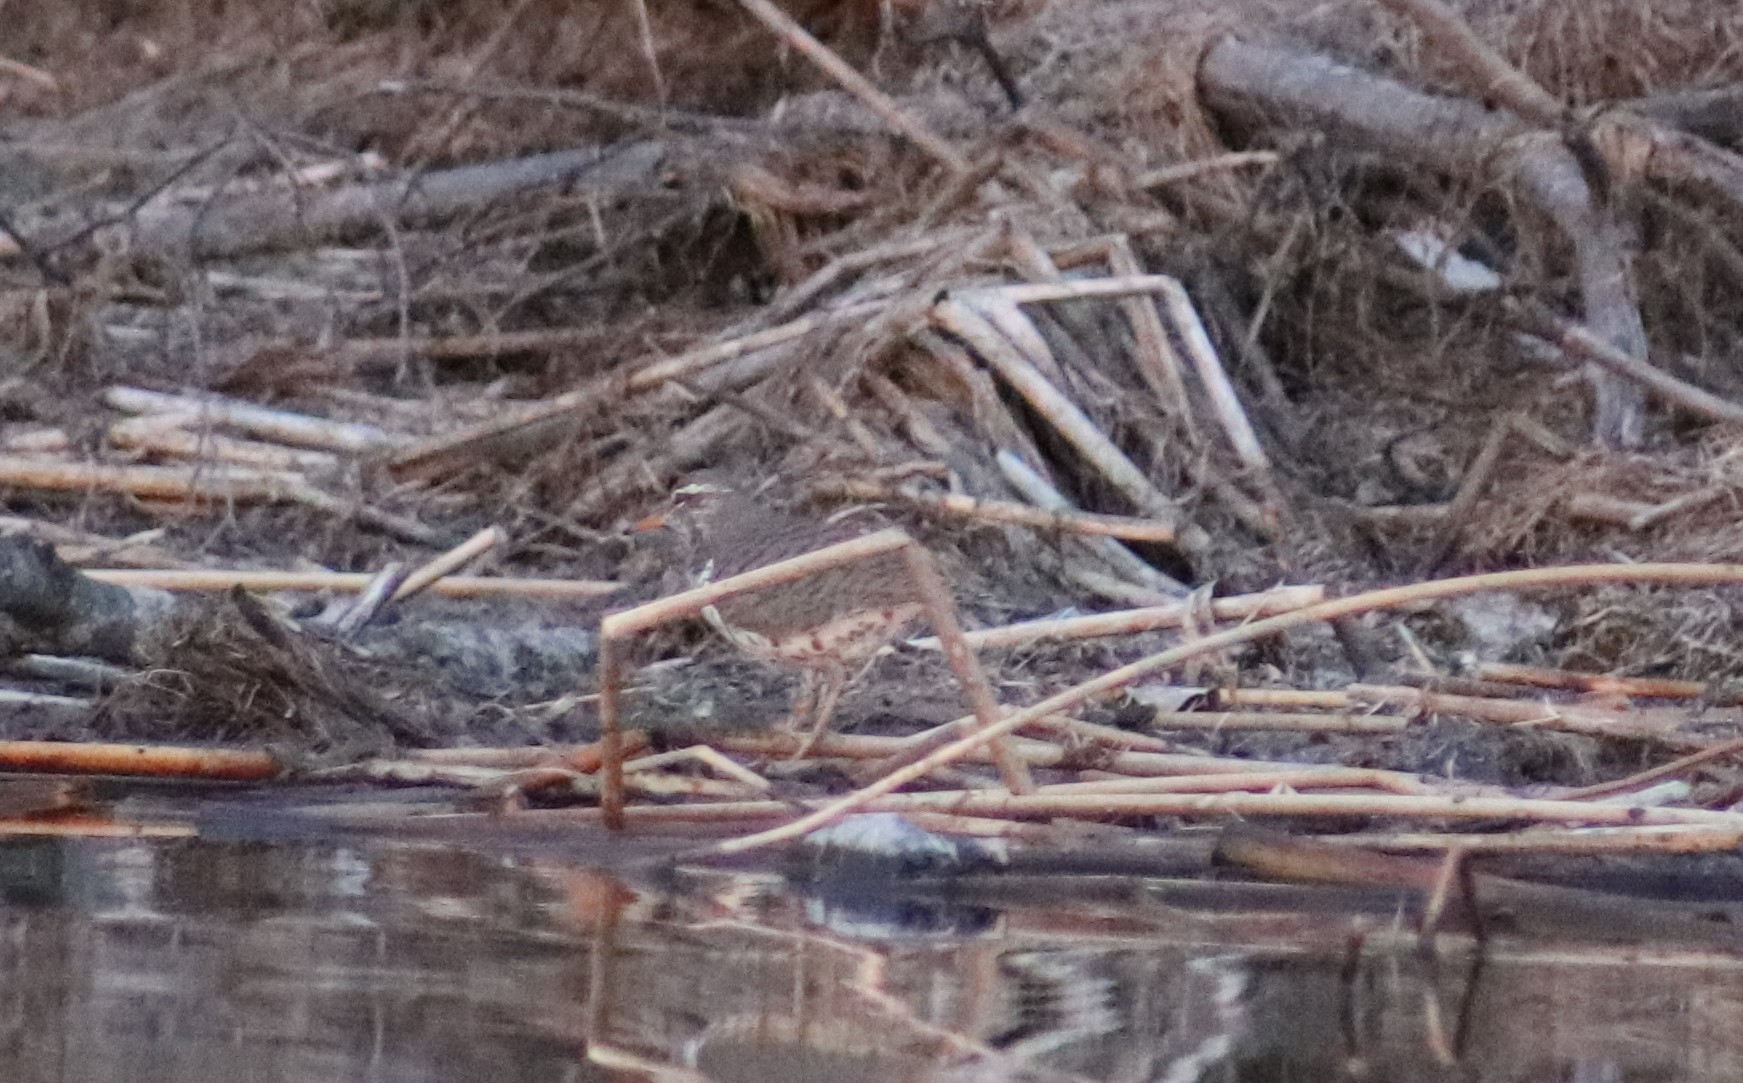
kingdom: Animalia
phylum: Chordata
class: Aves
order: Charadriiformes
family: Scolopacidae
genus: Actitis
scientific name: Actitis macularius
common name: Spotted sandpiper
